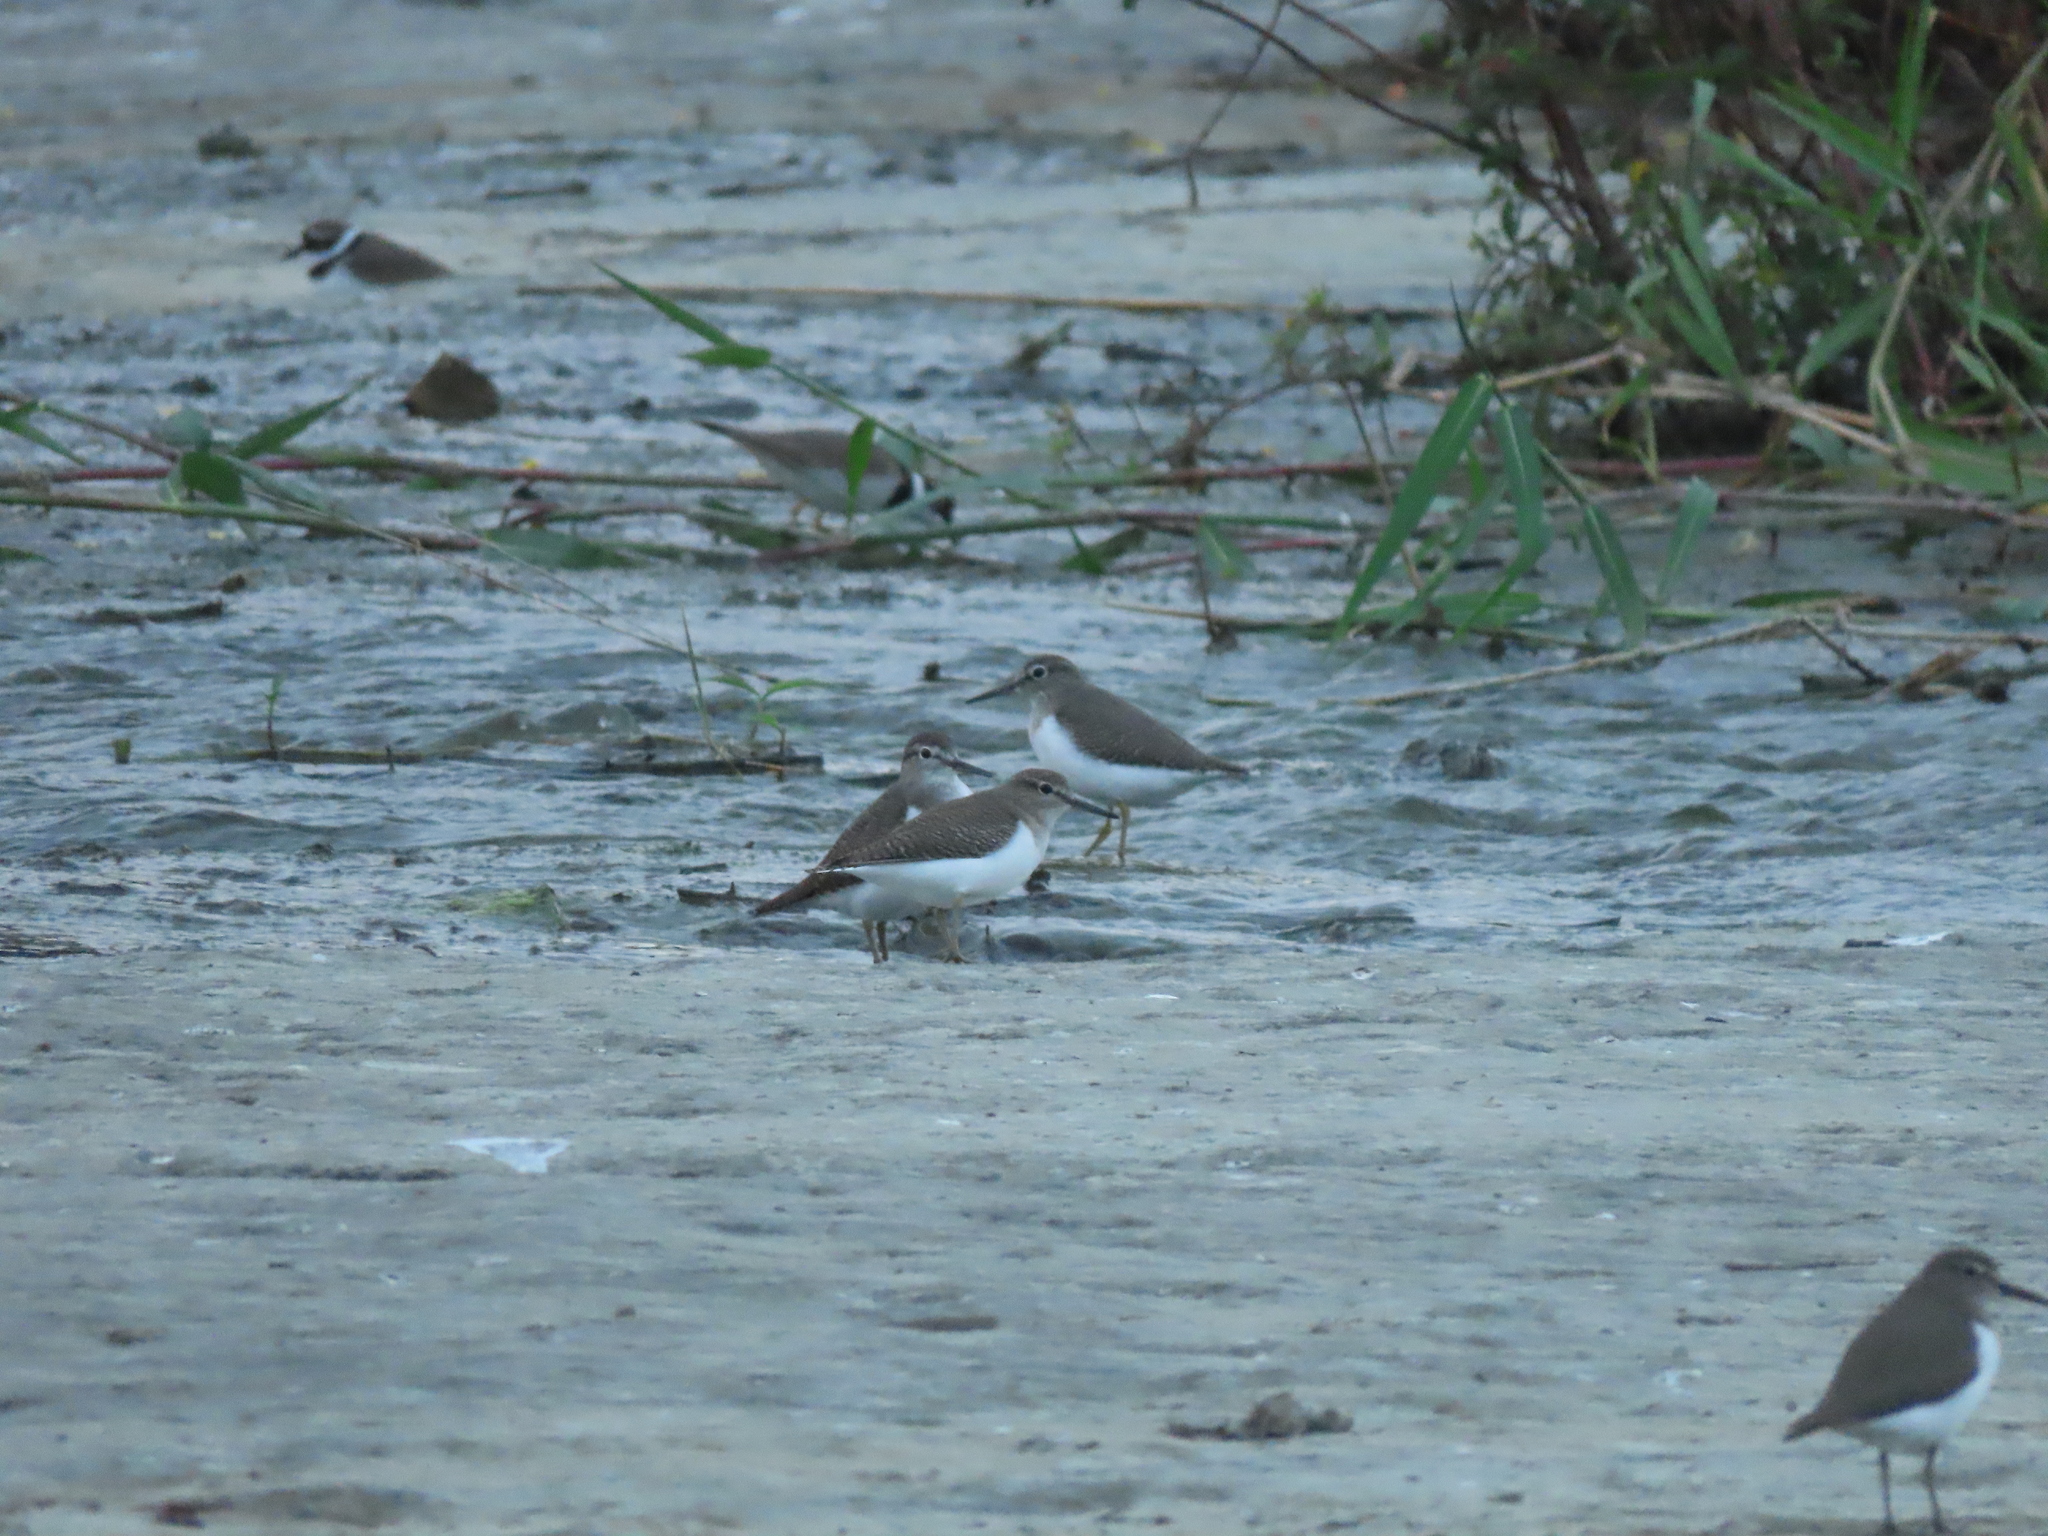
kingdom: Animalia
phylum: Chordata
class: Aves
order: Charadriiformes
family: Scolopacidae
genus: Actitis
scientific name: Actitis hypoleucos
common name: Common sandpiper
